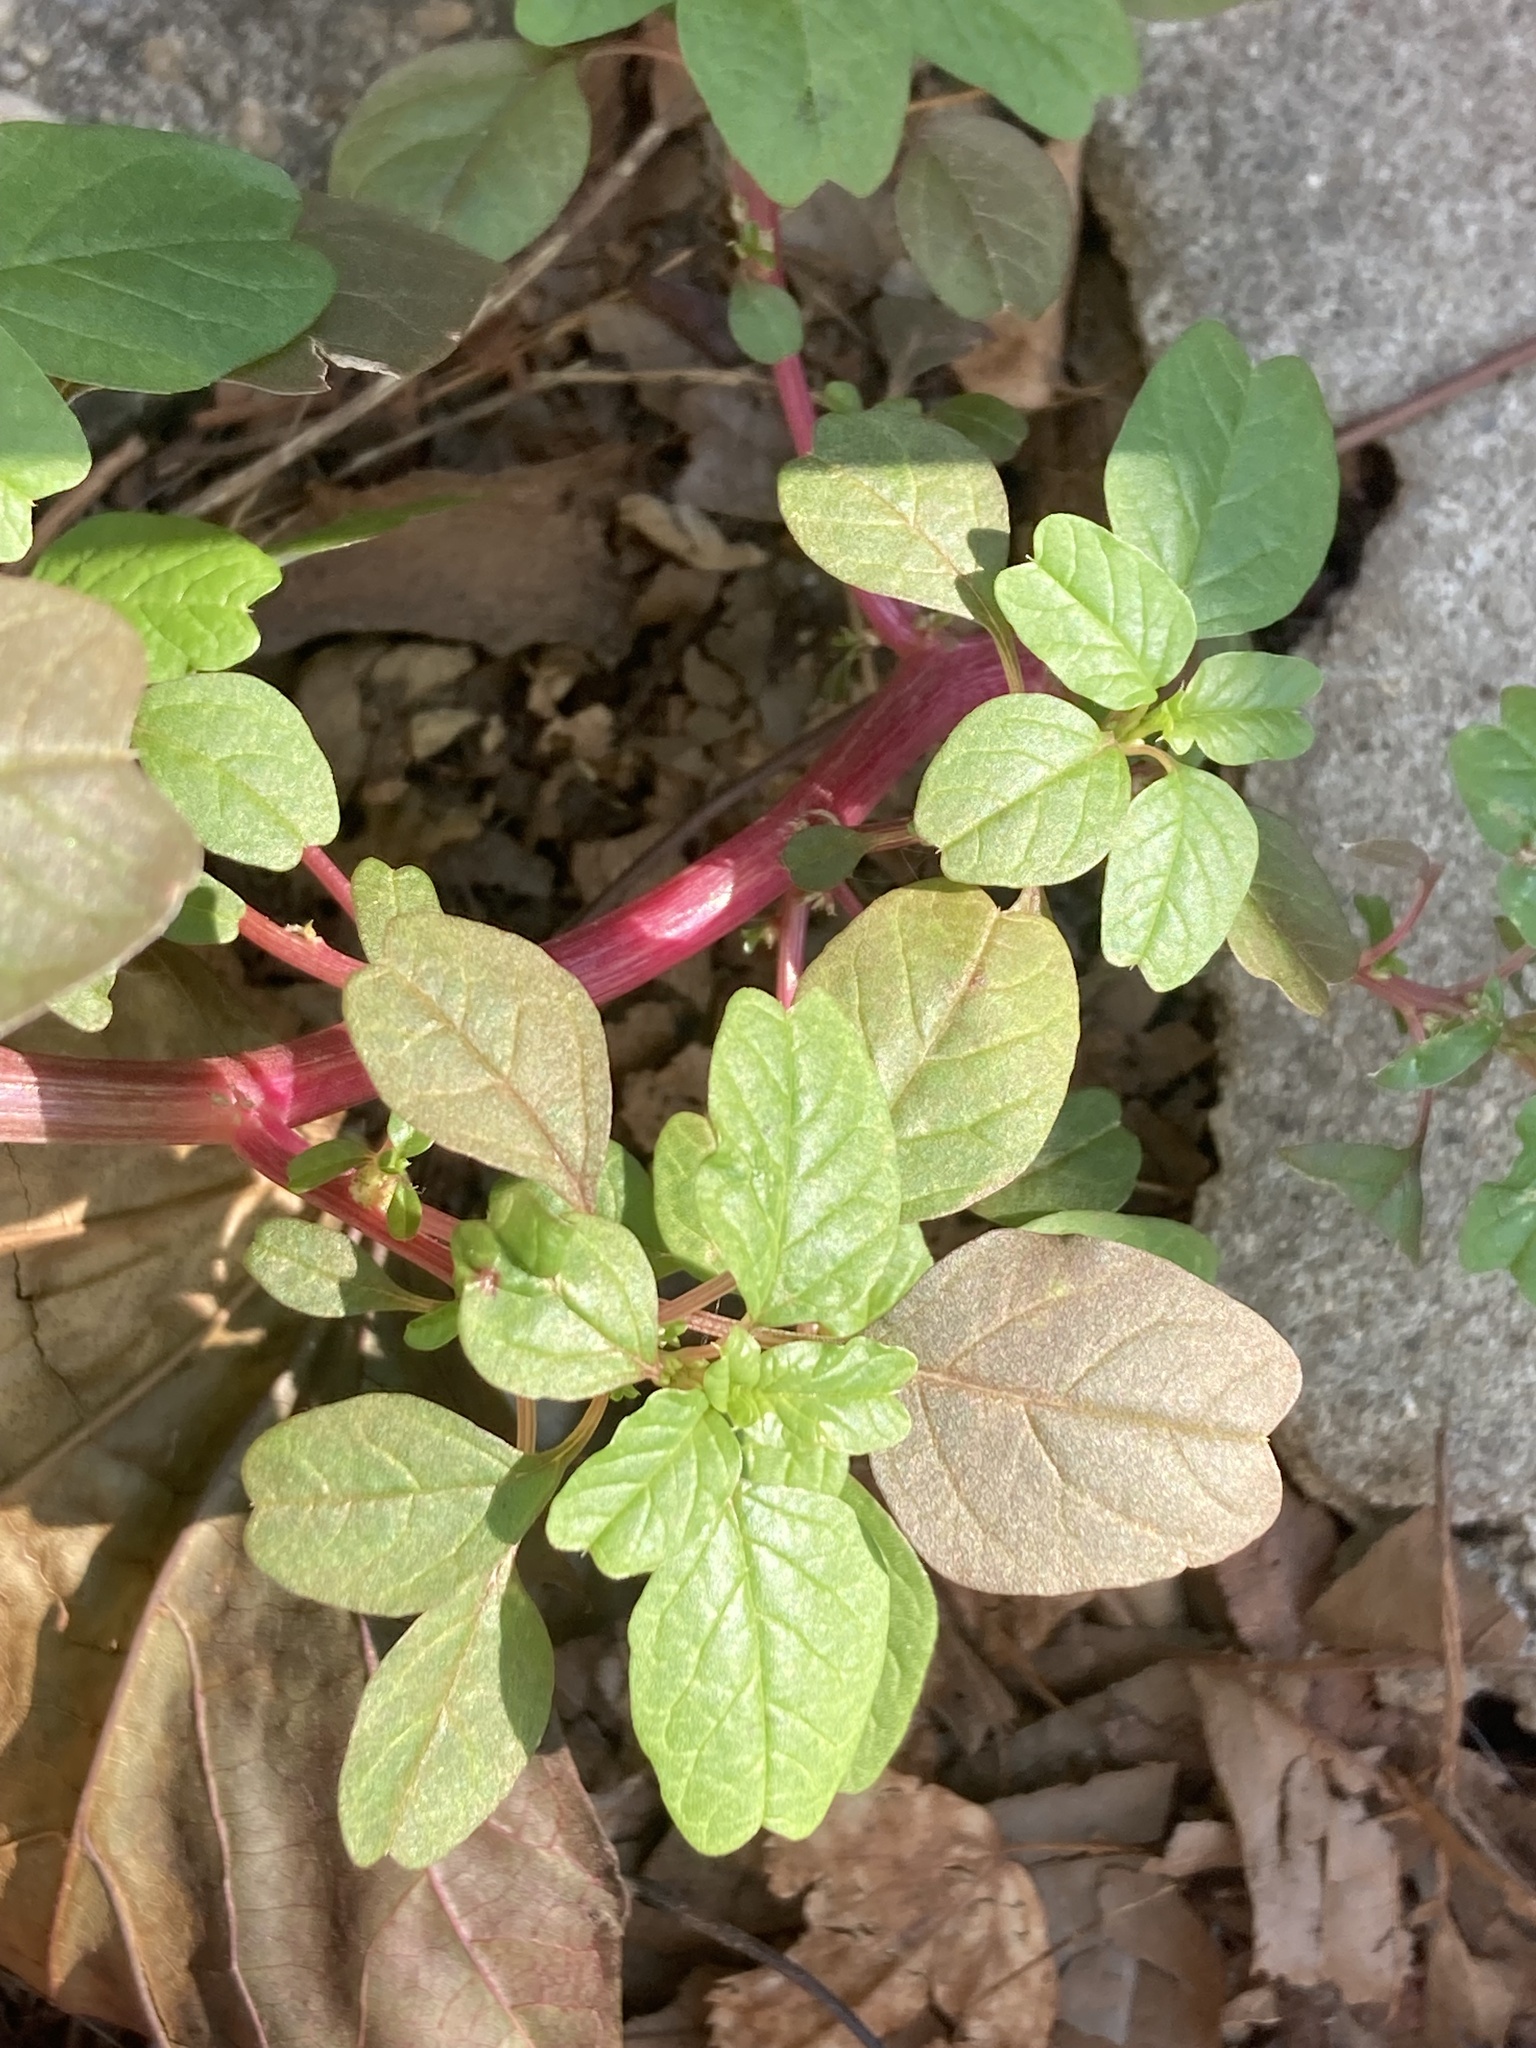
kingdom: Plantae
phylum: Tracheophyta
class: Magnoliopsida
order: Caryophyllales
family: Amaranthaceae
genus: Amaranthus
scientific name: Amaranthus blitum
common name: Purple amaranth
